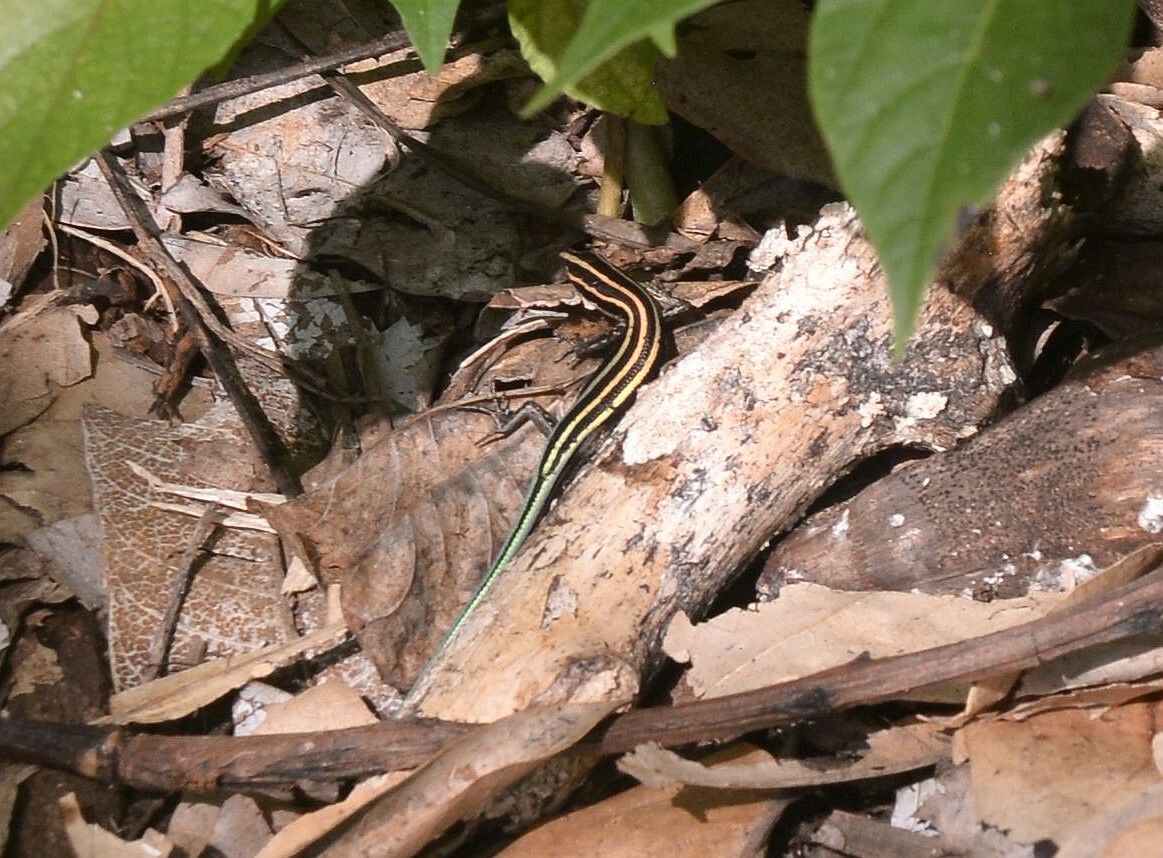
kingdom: Animalia
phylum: Chordata
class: Squamata
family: Scincidae
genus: Emoia
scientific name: Emoia caeruleocauda
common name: Pacific bluetail skink
